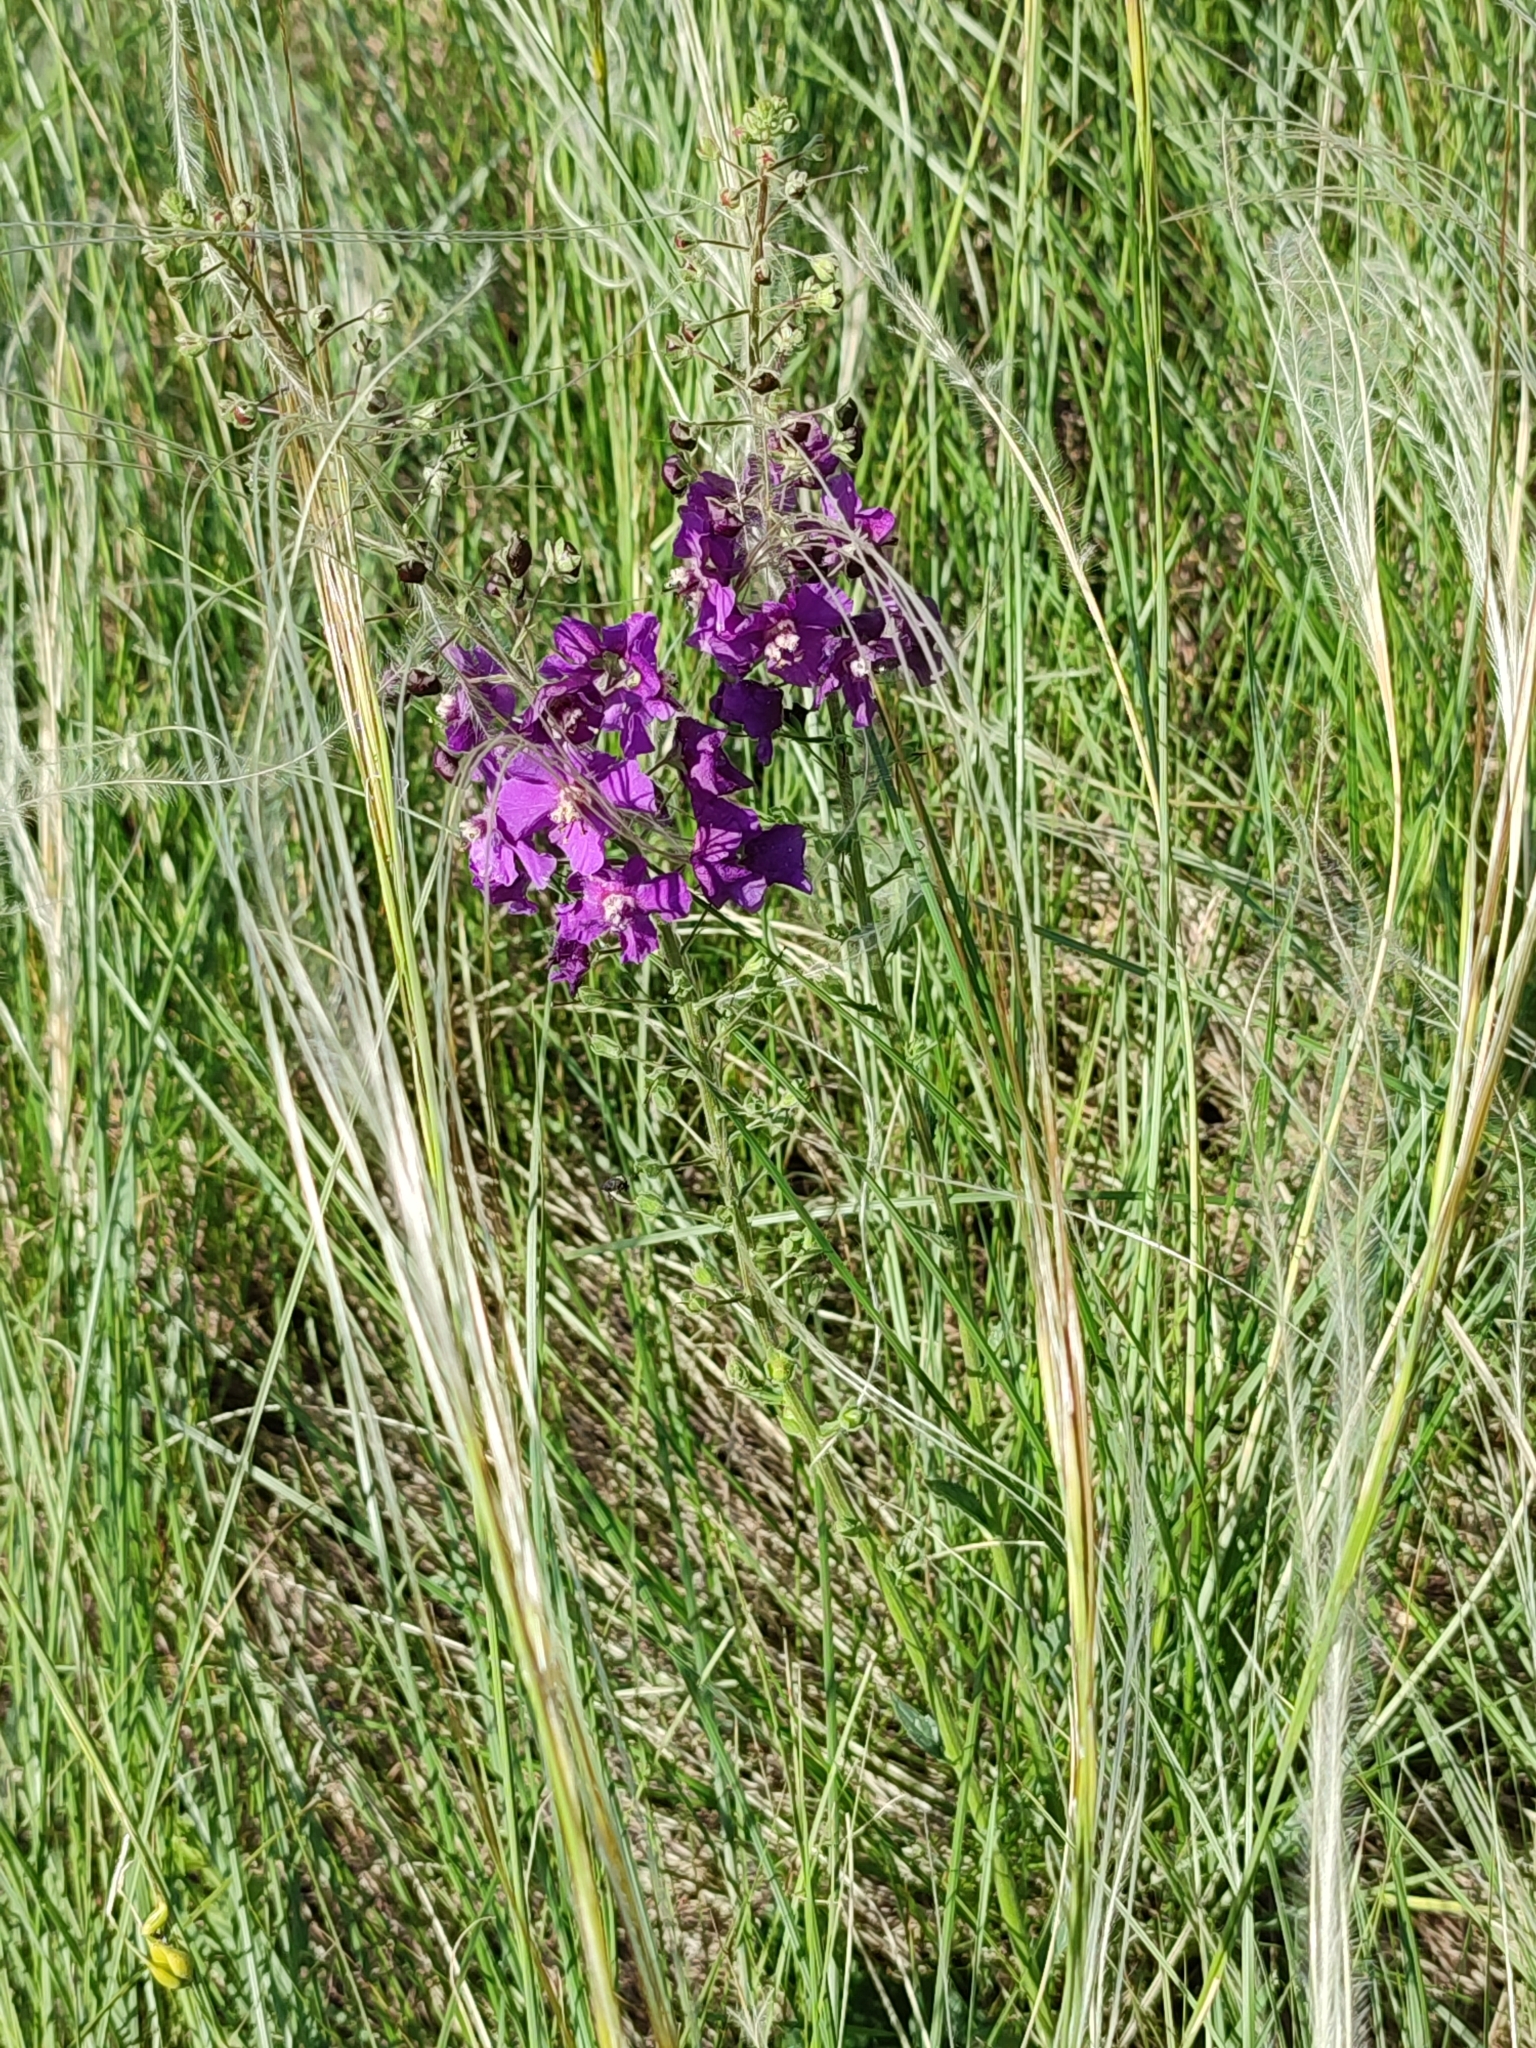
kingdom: Plantae
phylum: Tracheophyta
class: Magnoliopsida
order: Lamiales
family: Scrophulariaceae
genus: Verbascum
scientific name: Verbascum phoeniceum
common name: Purple mullein
